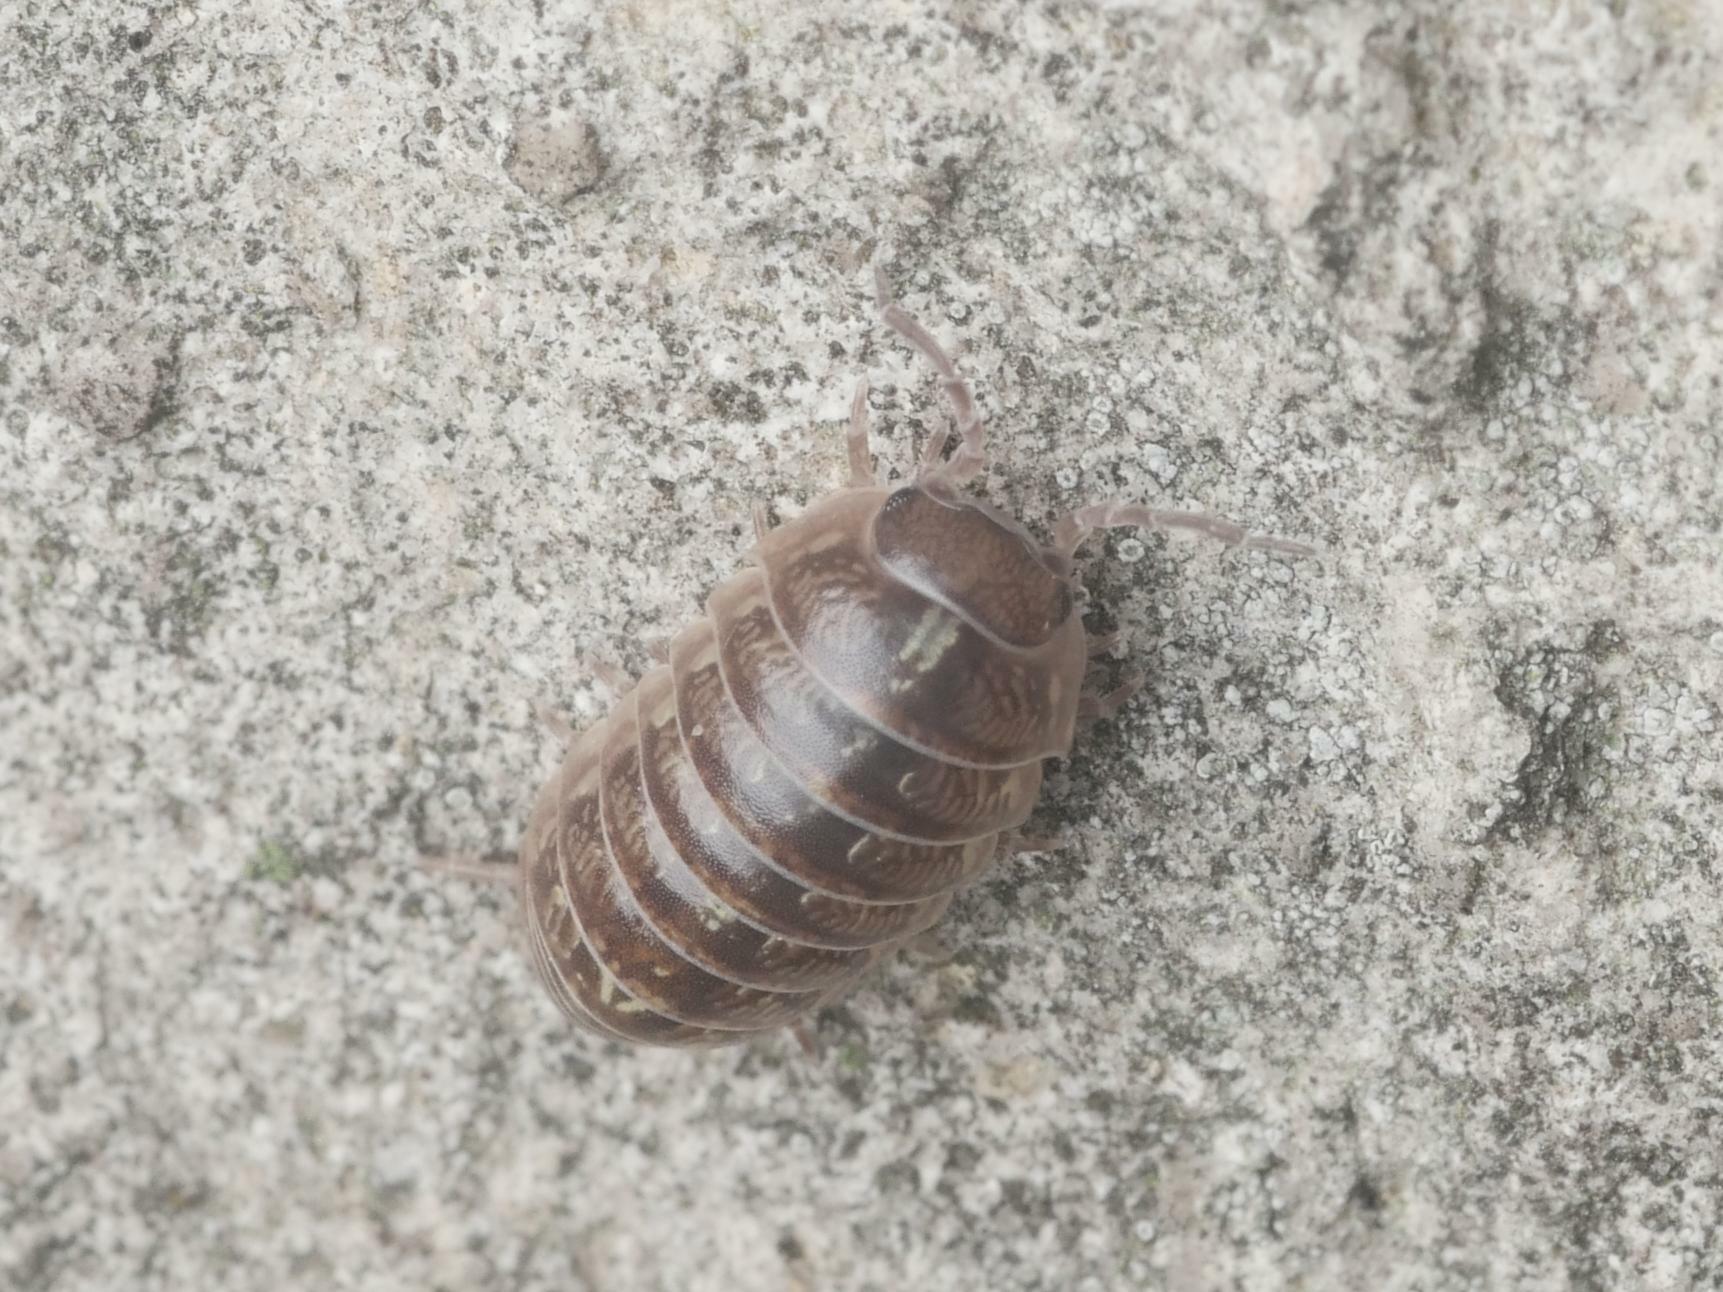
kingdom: Animalia
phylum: Arthropoda
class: Malacostraca
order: Isopoda
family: Armadillidiidae
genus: Armadillidium
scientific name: Armadillidium vulgare
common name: Common pill woodlouse
